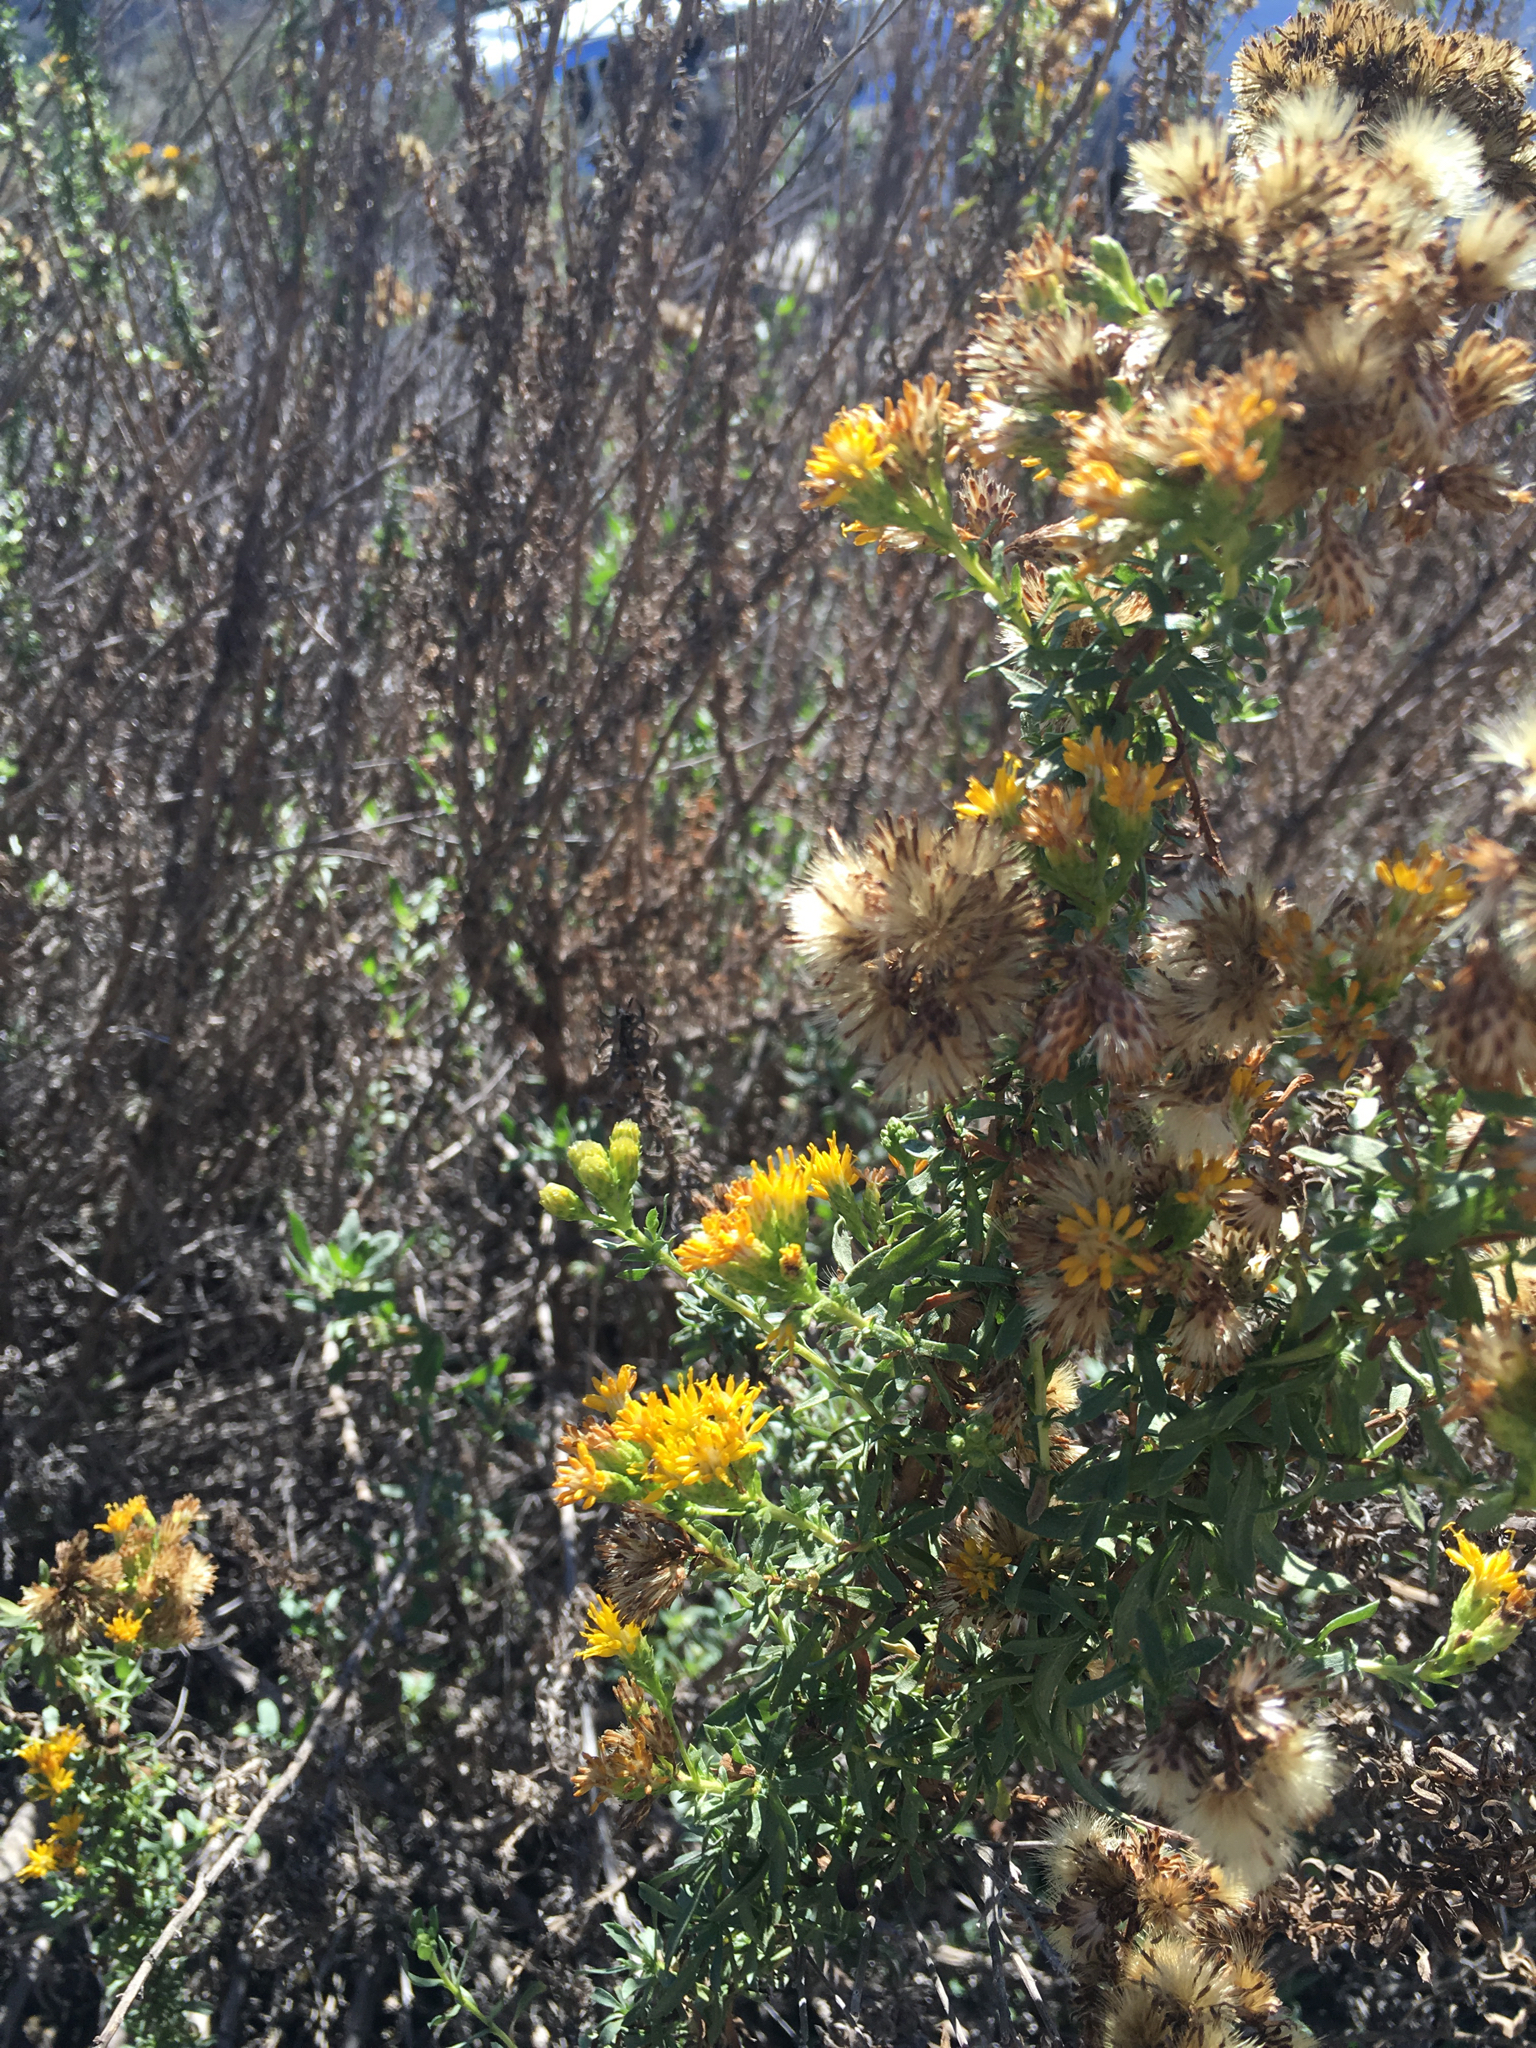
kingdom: Plantae
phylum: Tracheophyta
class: Magnoliopsida
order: Asterales
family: Asteraceae
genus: Isocoma
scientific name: Isocoma menziesii
